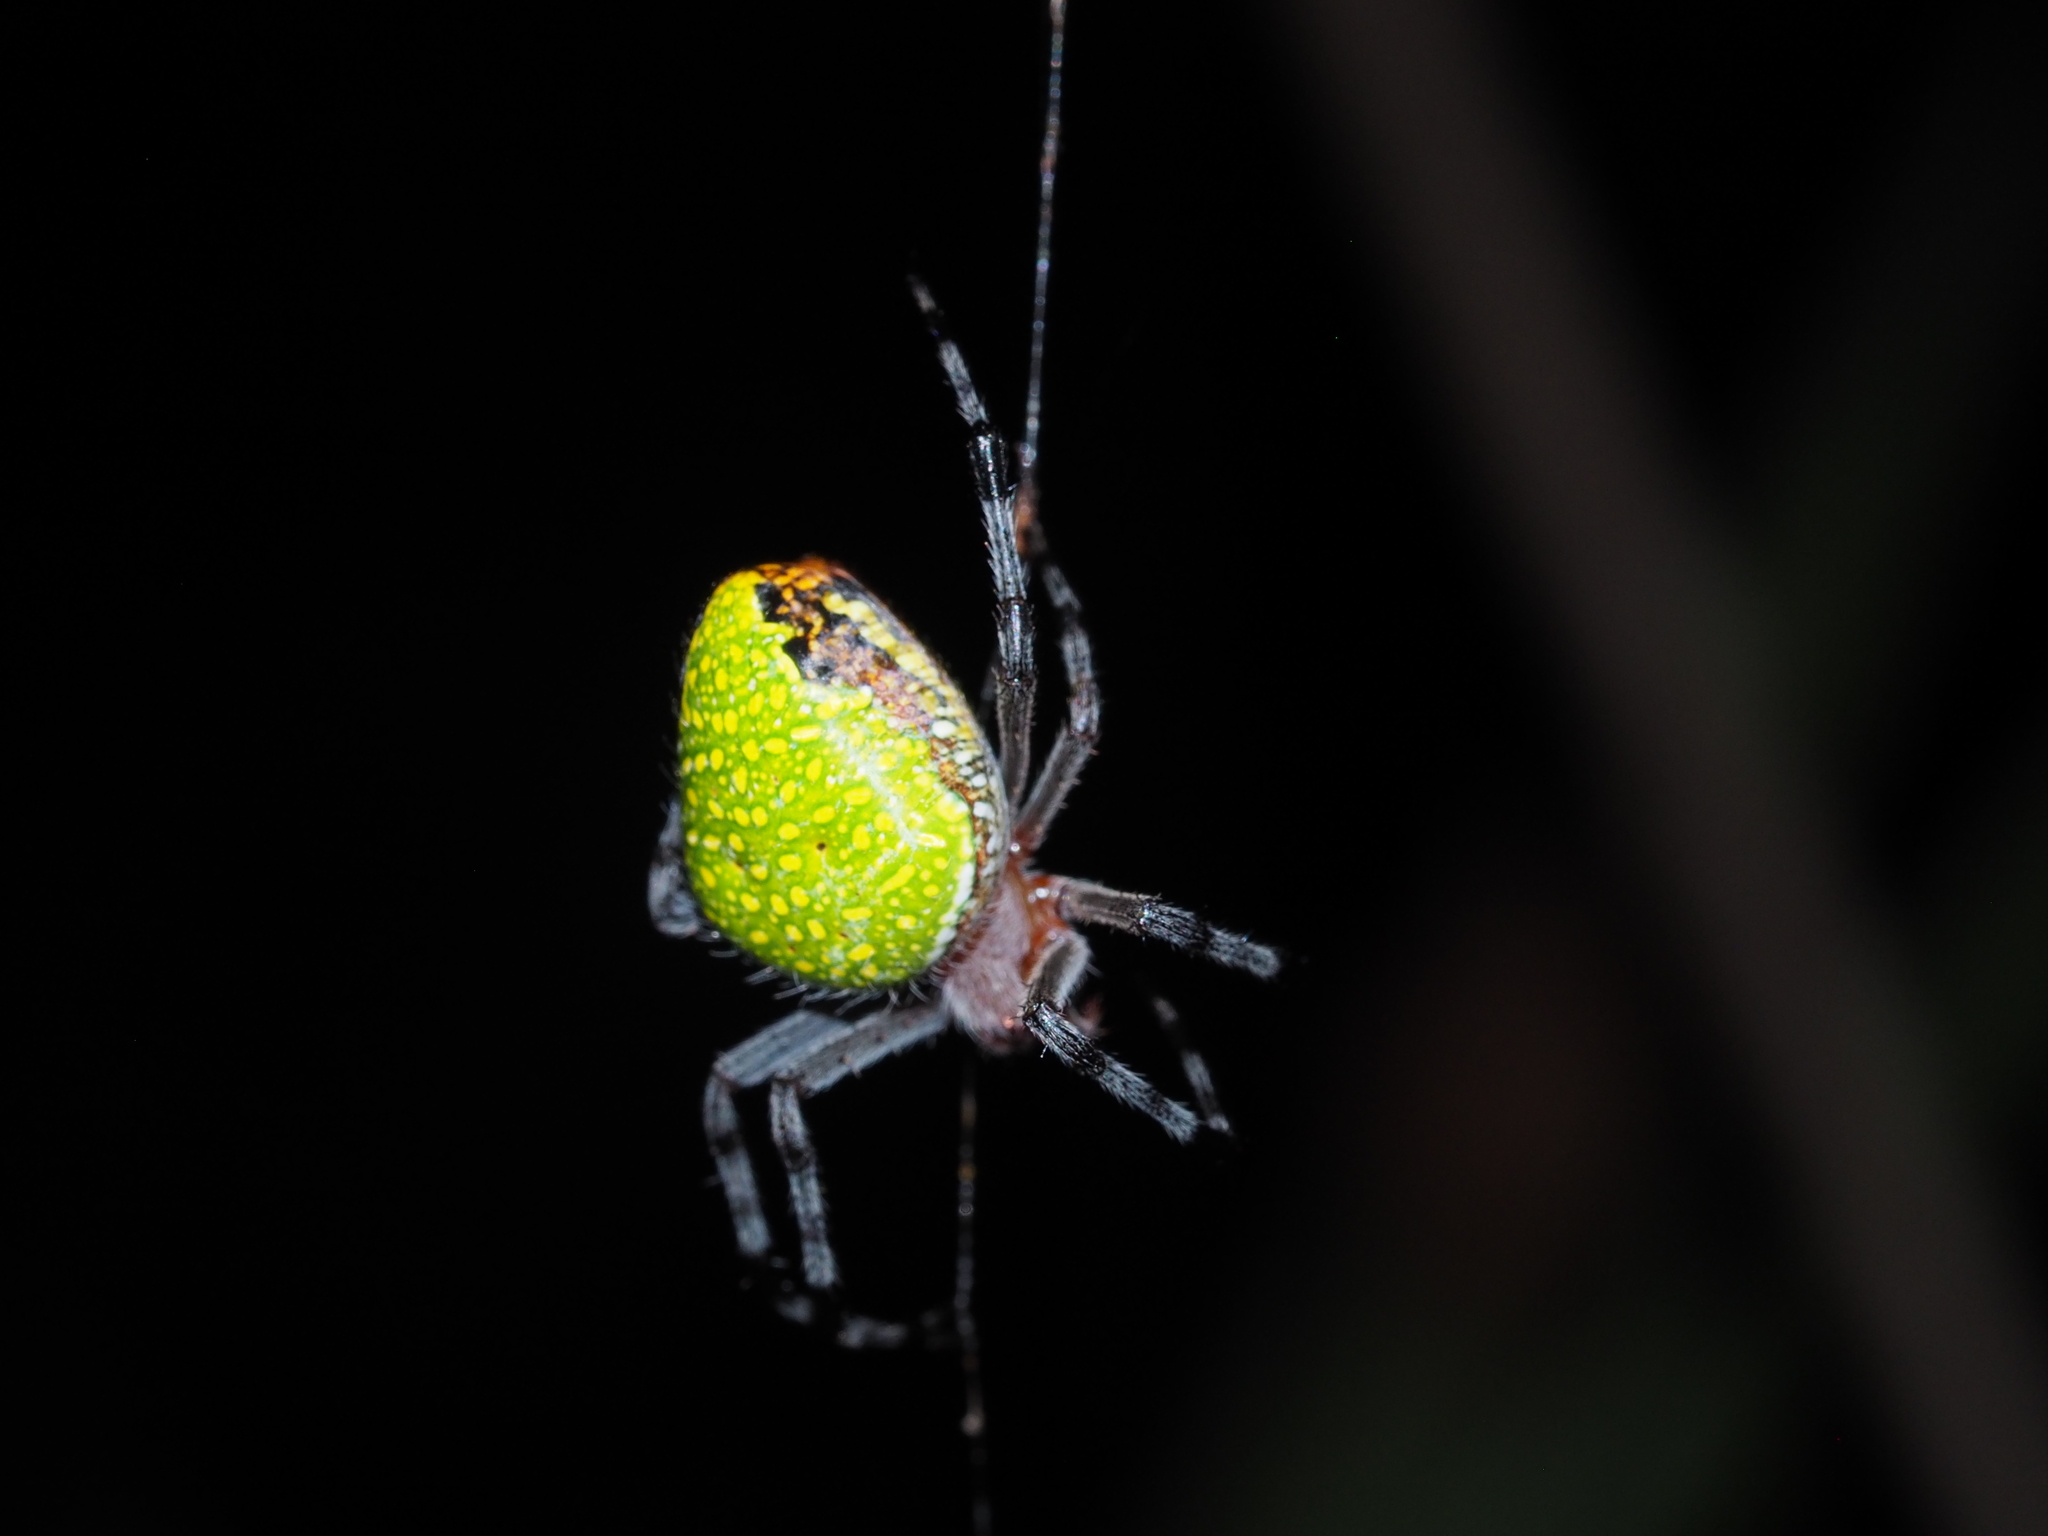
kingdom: Animalia
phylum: Arthropoda
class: Arachnida
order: Araneae
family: Araneidae
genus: Eriophora
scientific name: Eriophora nephiloides
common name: Orb weavers
